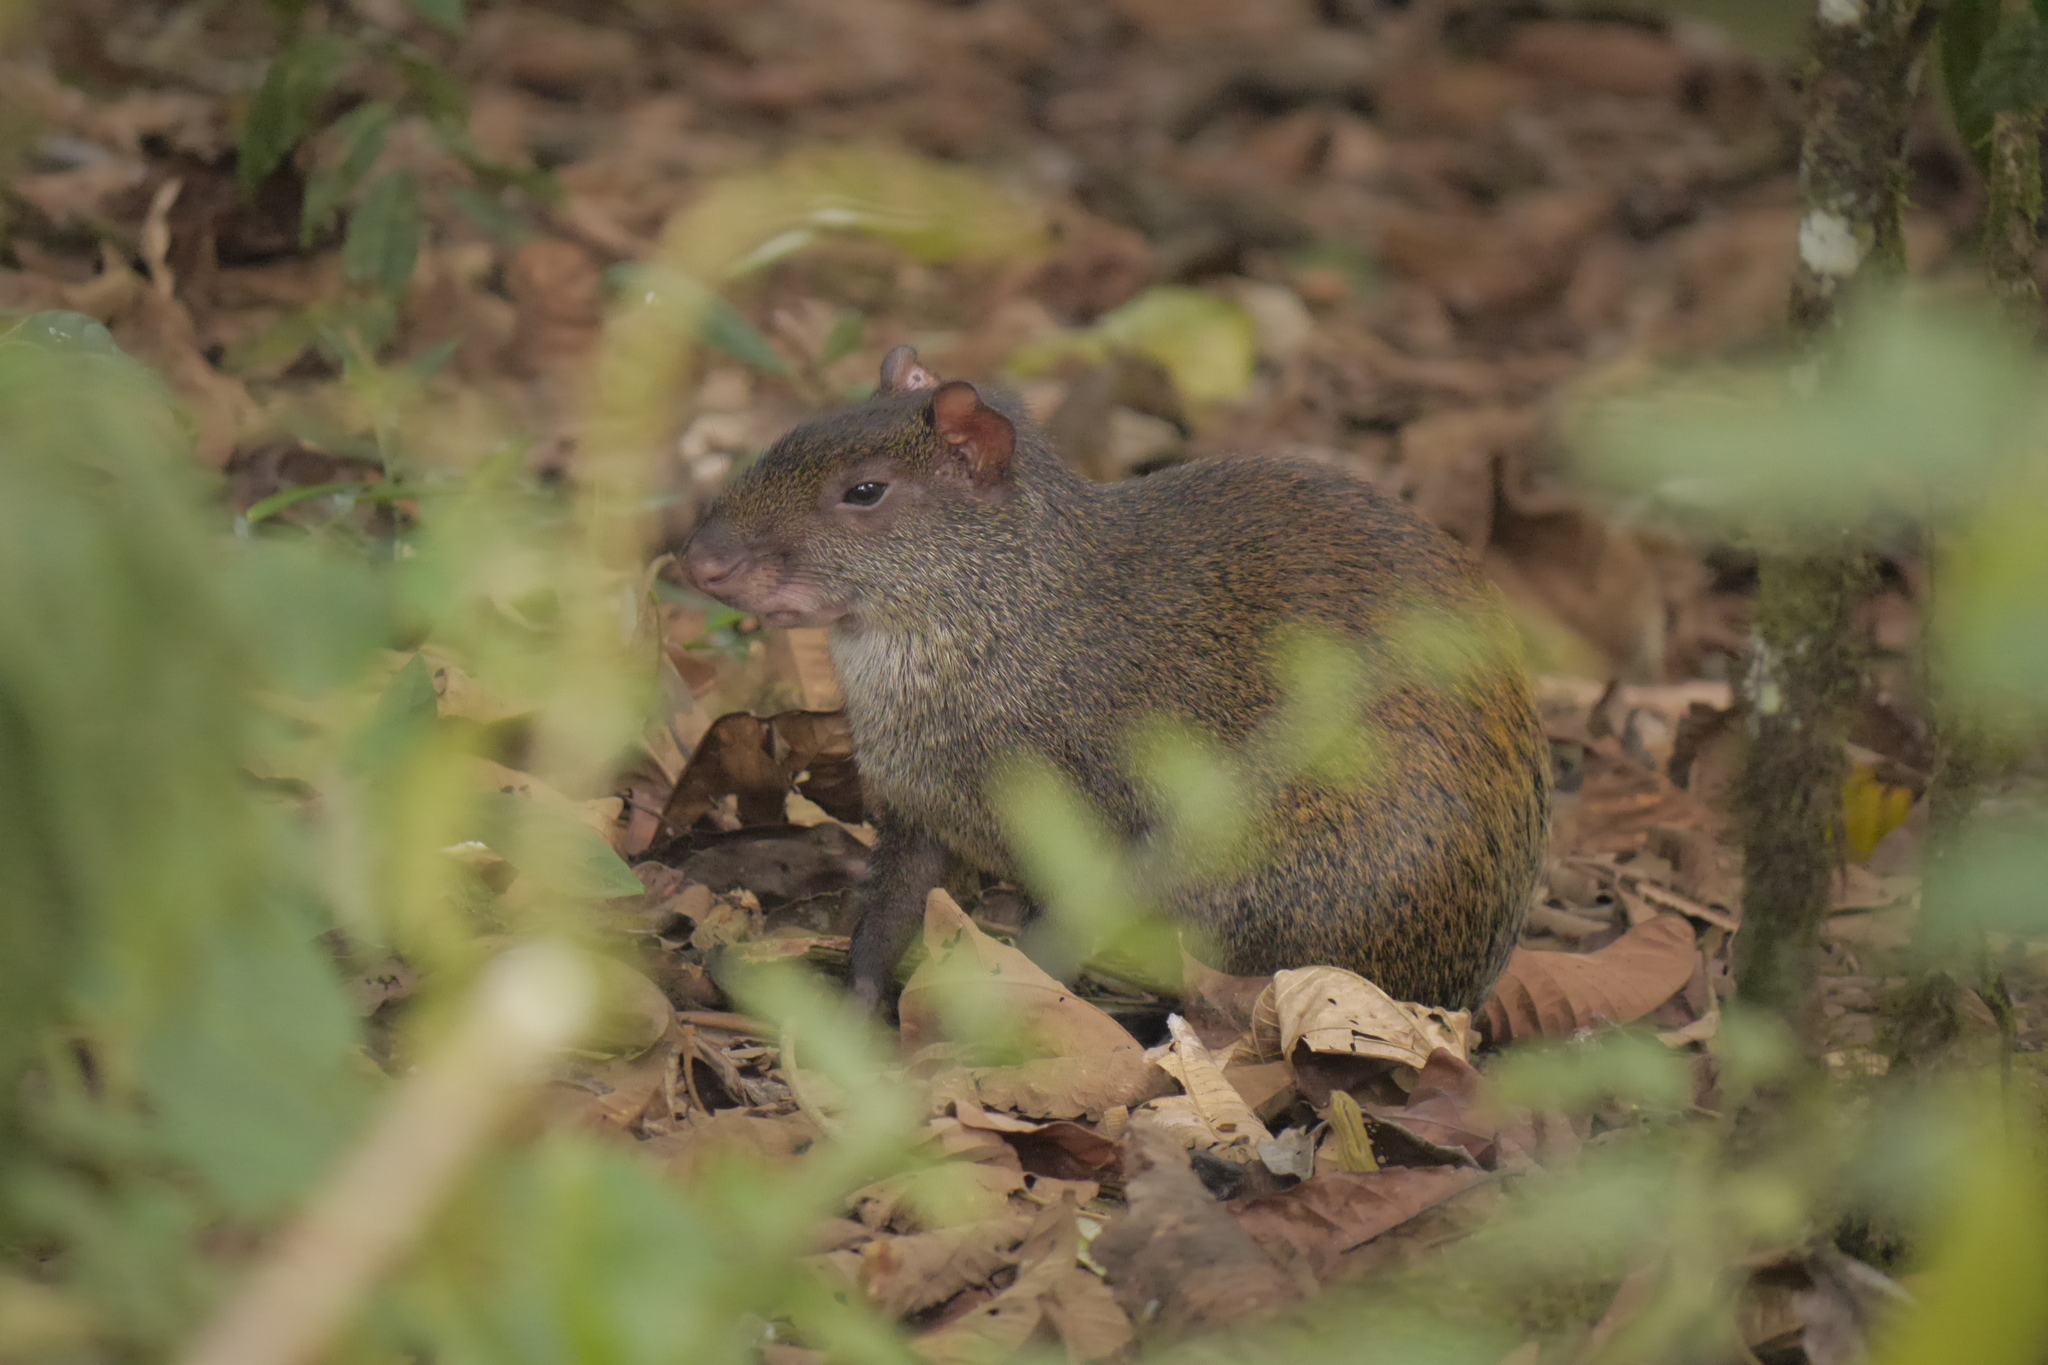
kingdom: Animalia
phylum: Chordata
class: Mammalia
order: Rodentia
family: Dasyproctidae
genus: Dasyprocta
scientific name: Dasyprocta punctata
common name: Central american agouti
